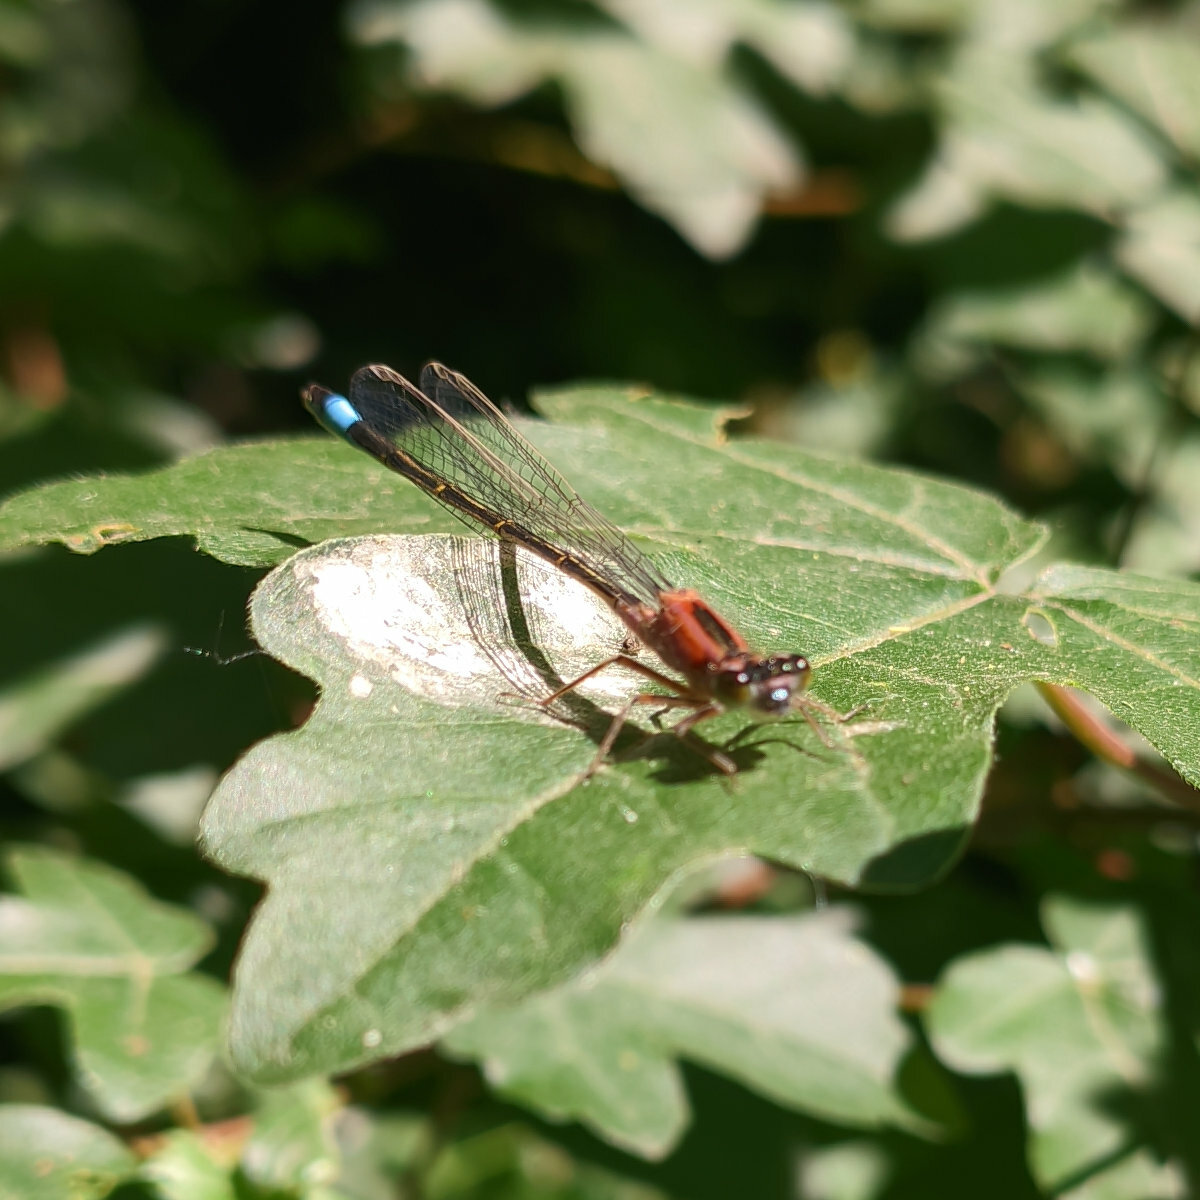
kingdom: Animalia
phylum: Arthropoda
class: Insecta
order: Odonata
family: Coenagrionidae
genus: Ischnura
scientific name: Ischnura elegans
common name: Blue-tailed damselfly
